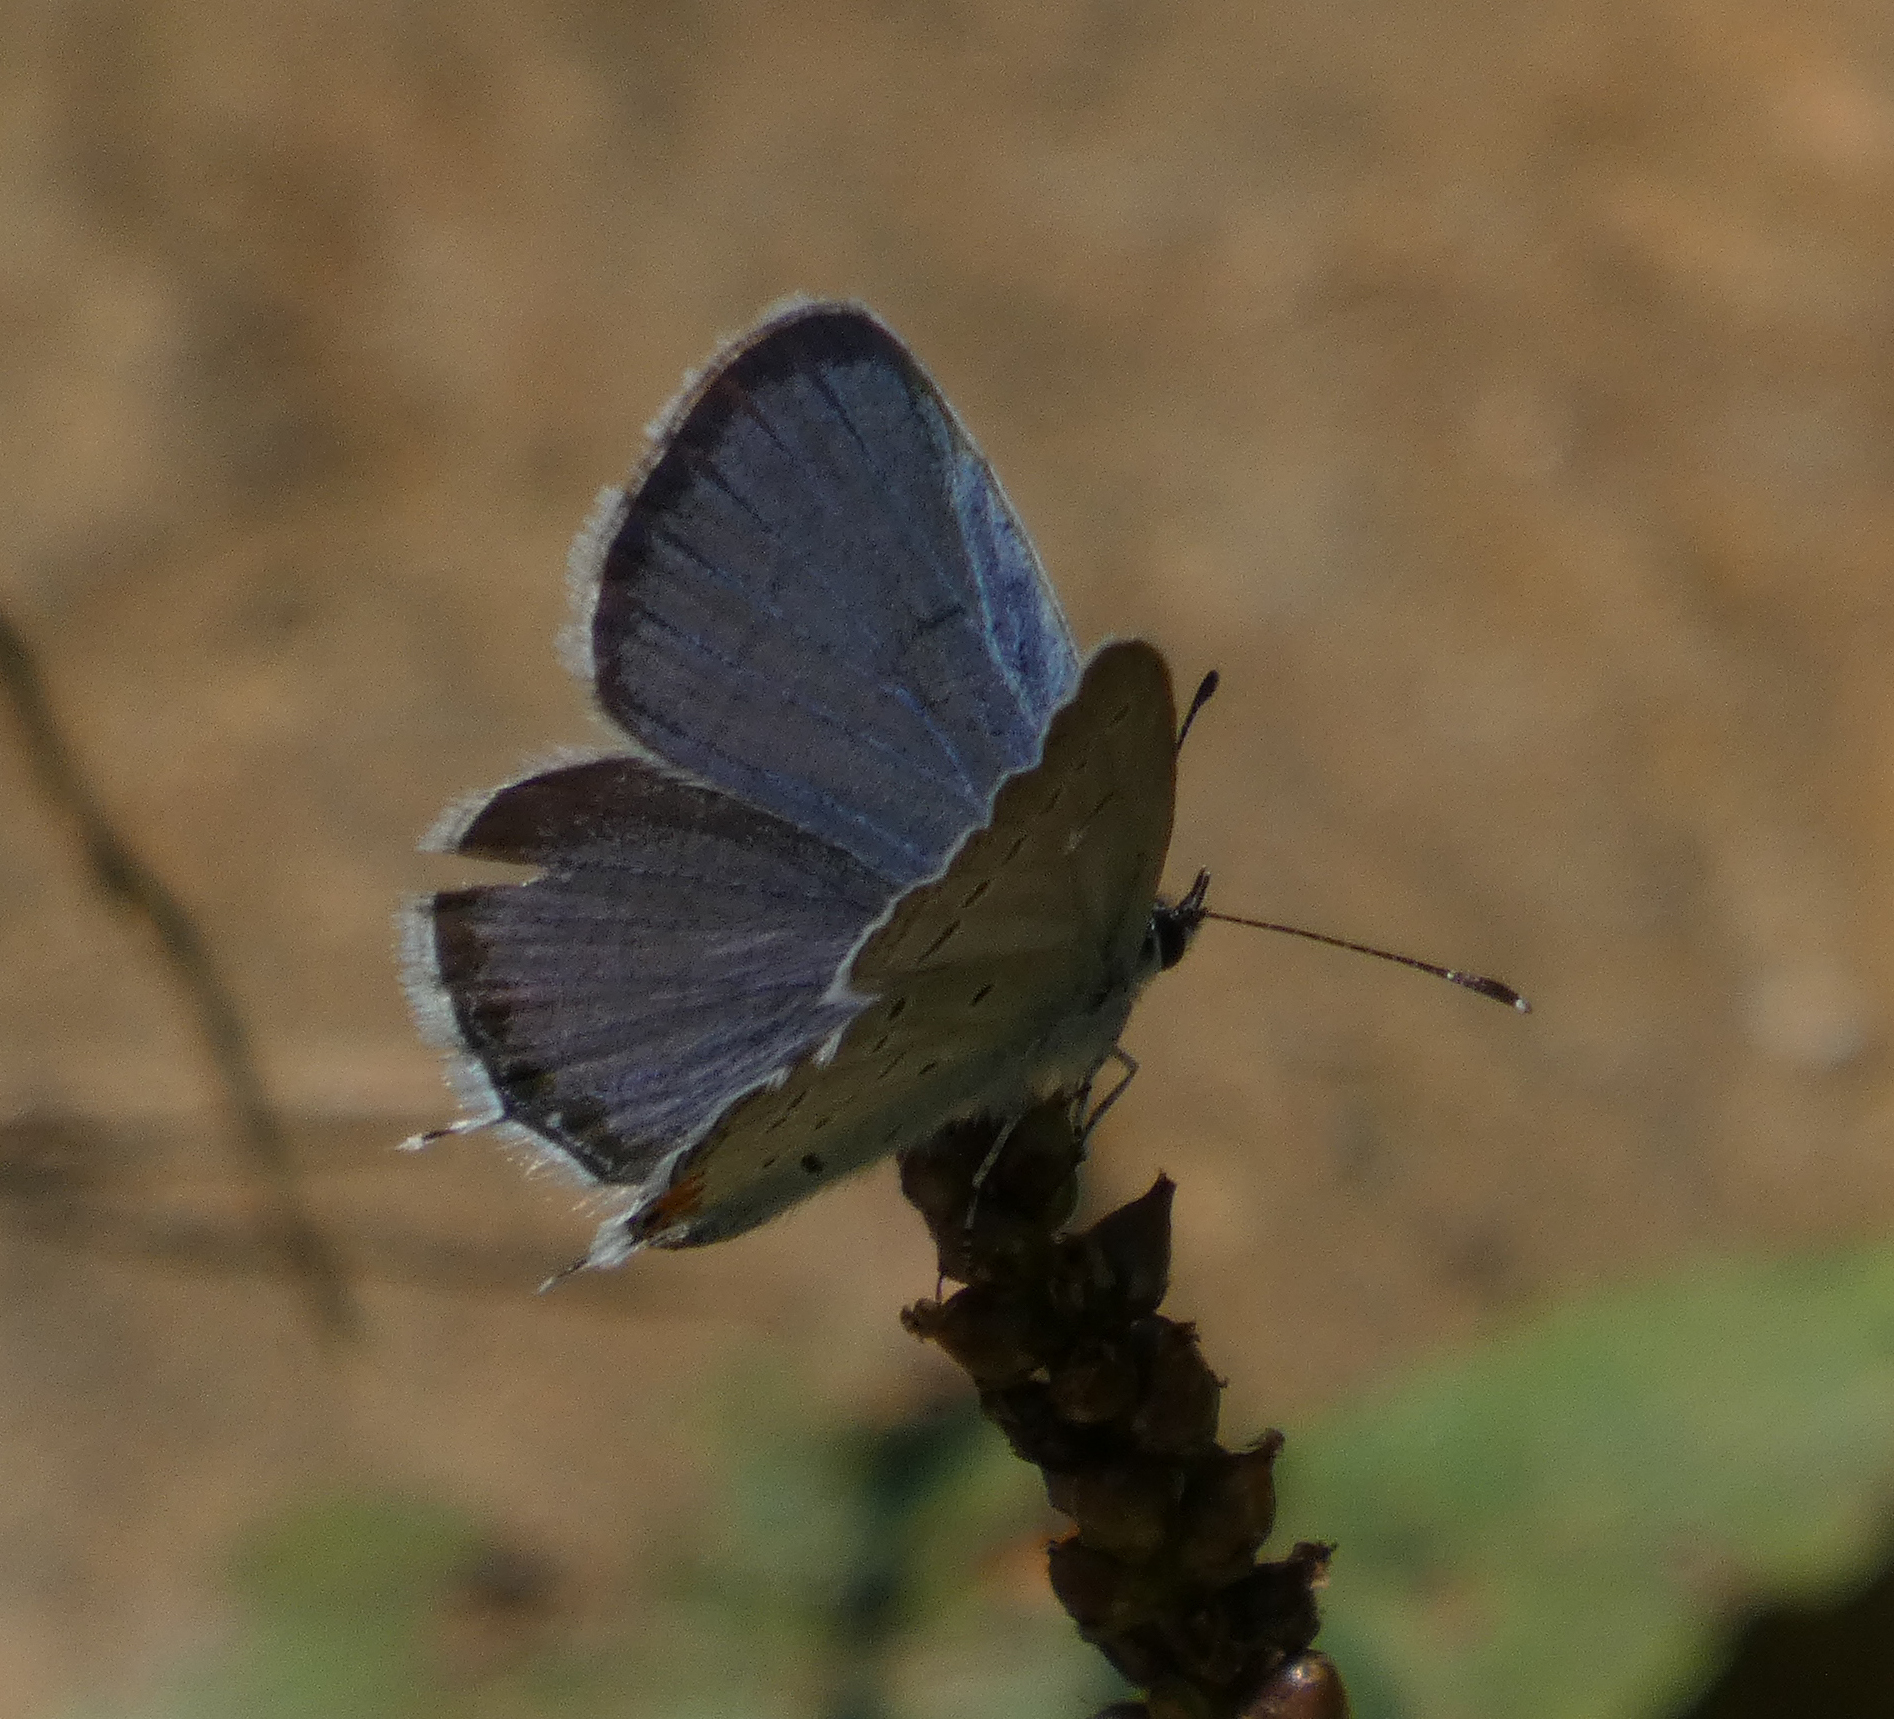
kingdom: Animalia
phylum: Arthropoda
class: Insecta
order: Lepidoptera
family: Lycaenidae
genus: Elkalyce
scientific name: Elkalyce comyntas
